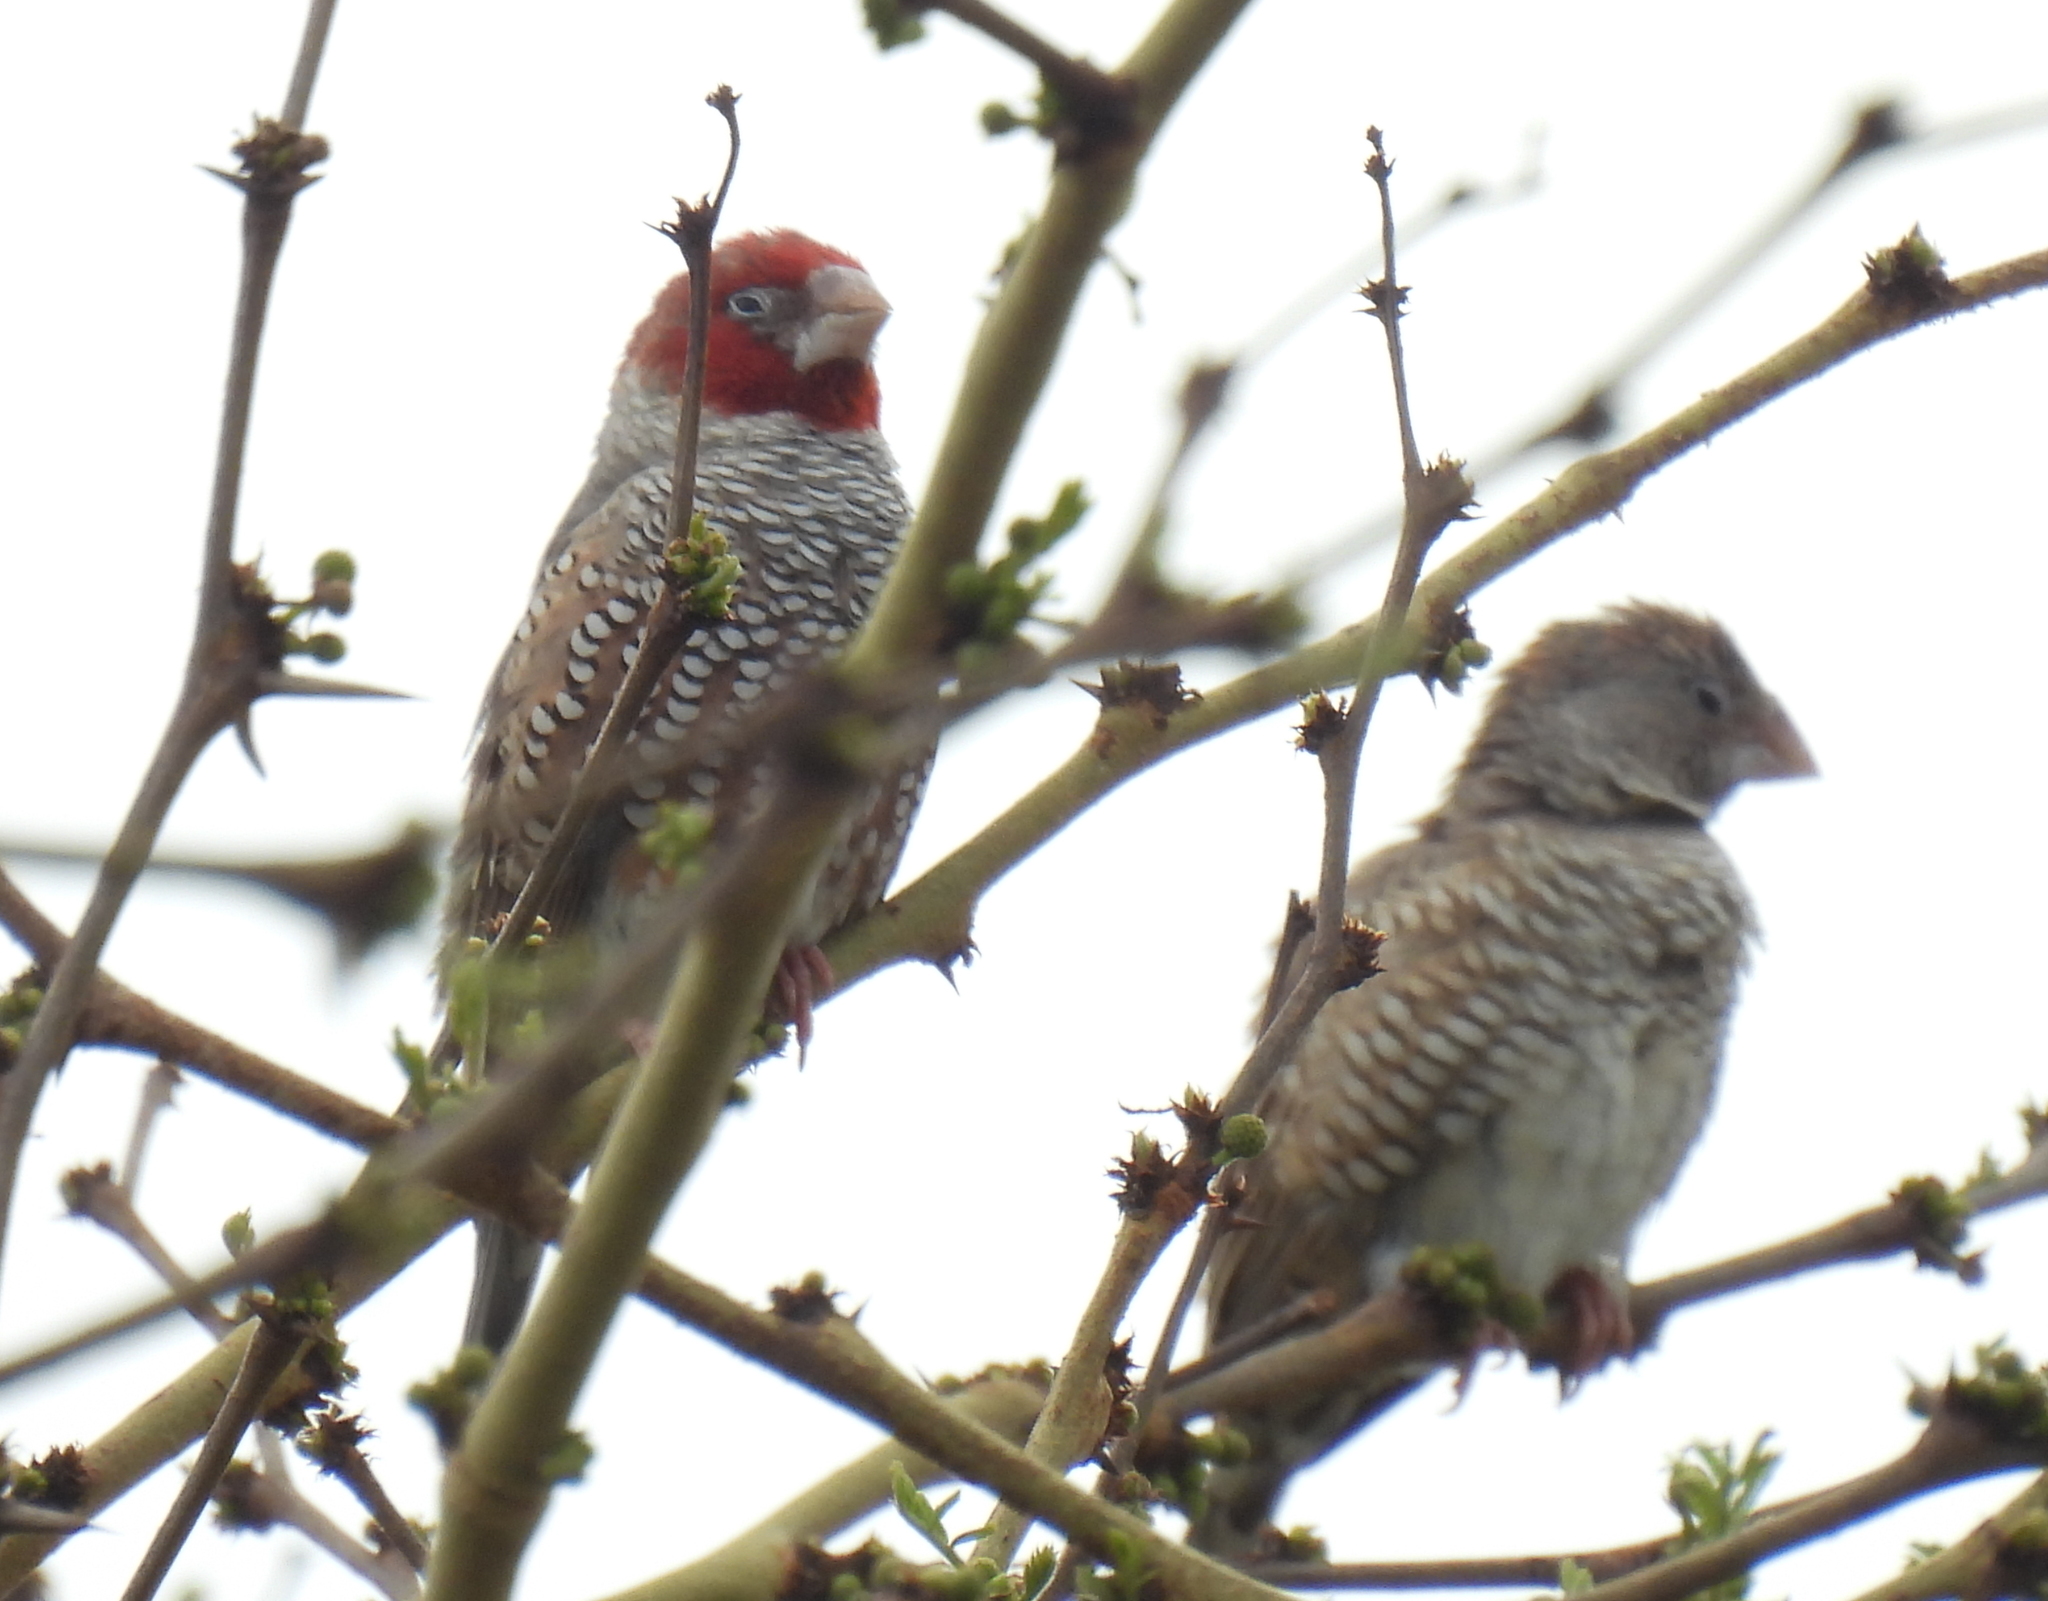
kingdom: Animalia
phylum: Chordata
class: Aves
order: Passeriformes
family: Estrildidae
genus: Amadina
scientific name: Amadina erythrocephala
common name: Red-headed finch
